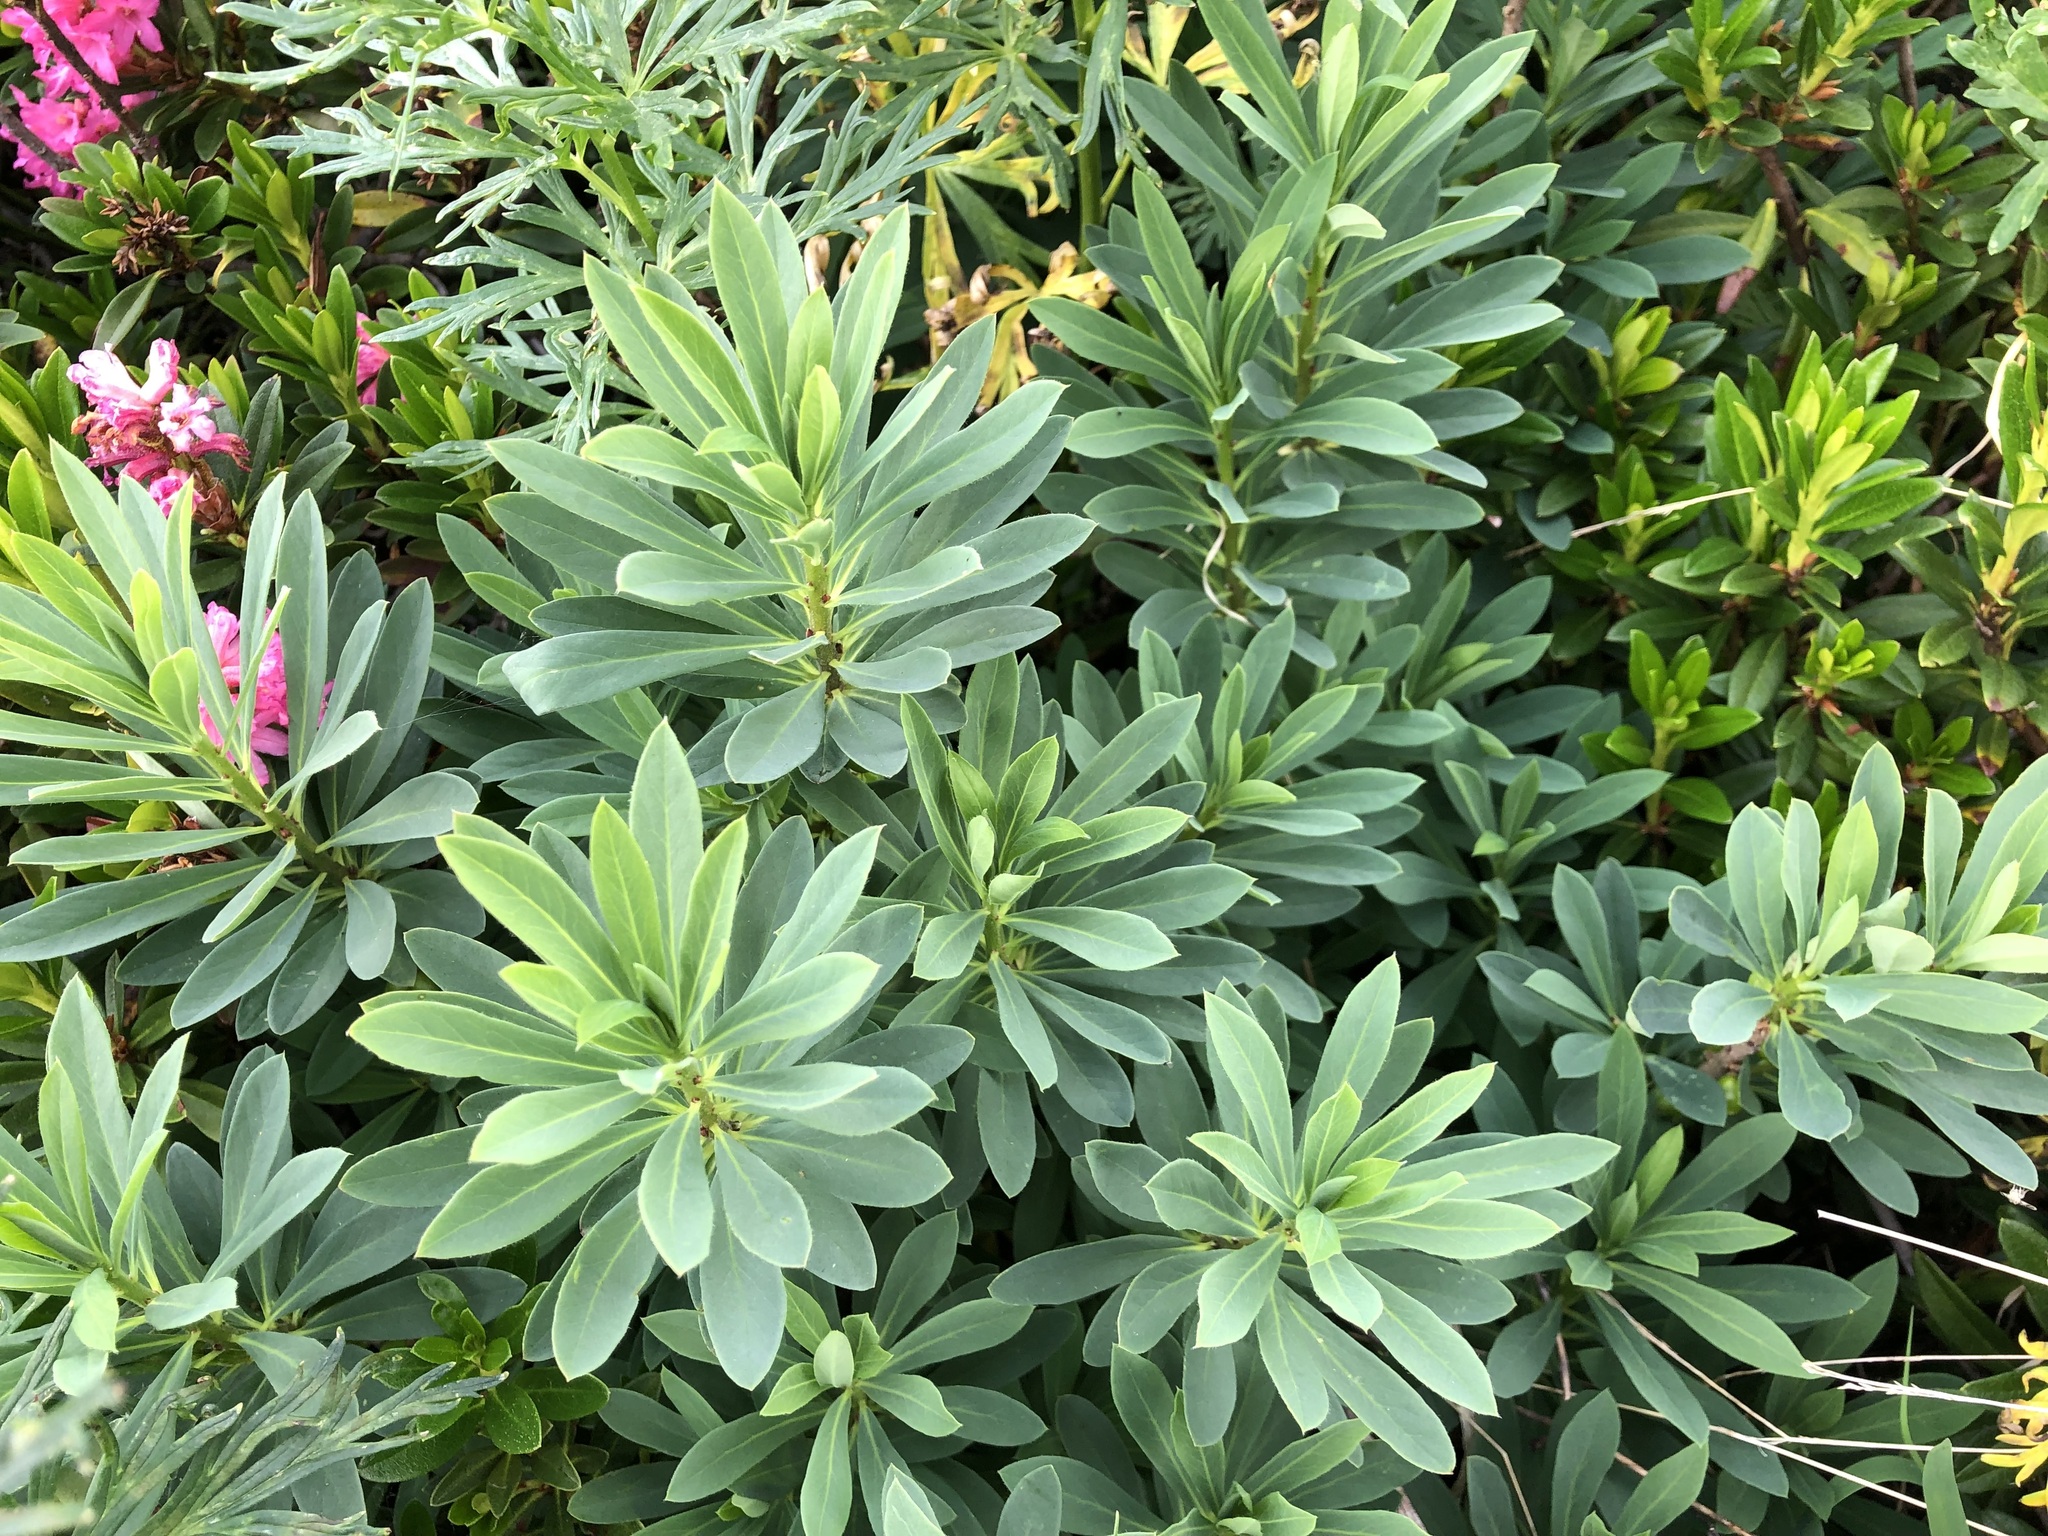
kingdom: Plantae
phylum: Tracheophyta
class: Magnoliopsida
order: Malvales
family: Thymelaeaceae
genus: Daphne
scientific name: Daphne mezereum
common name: Mezereon
